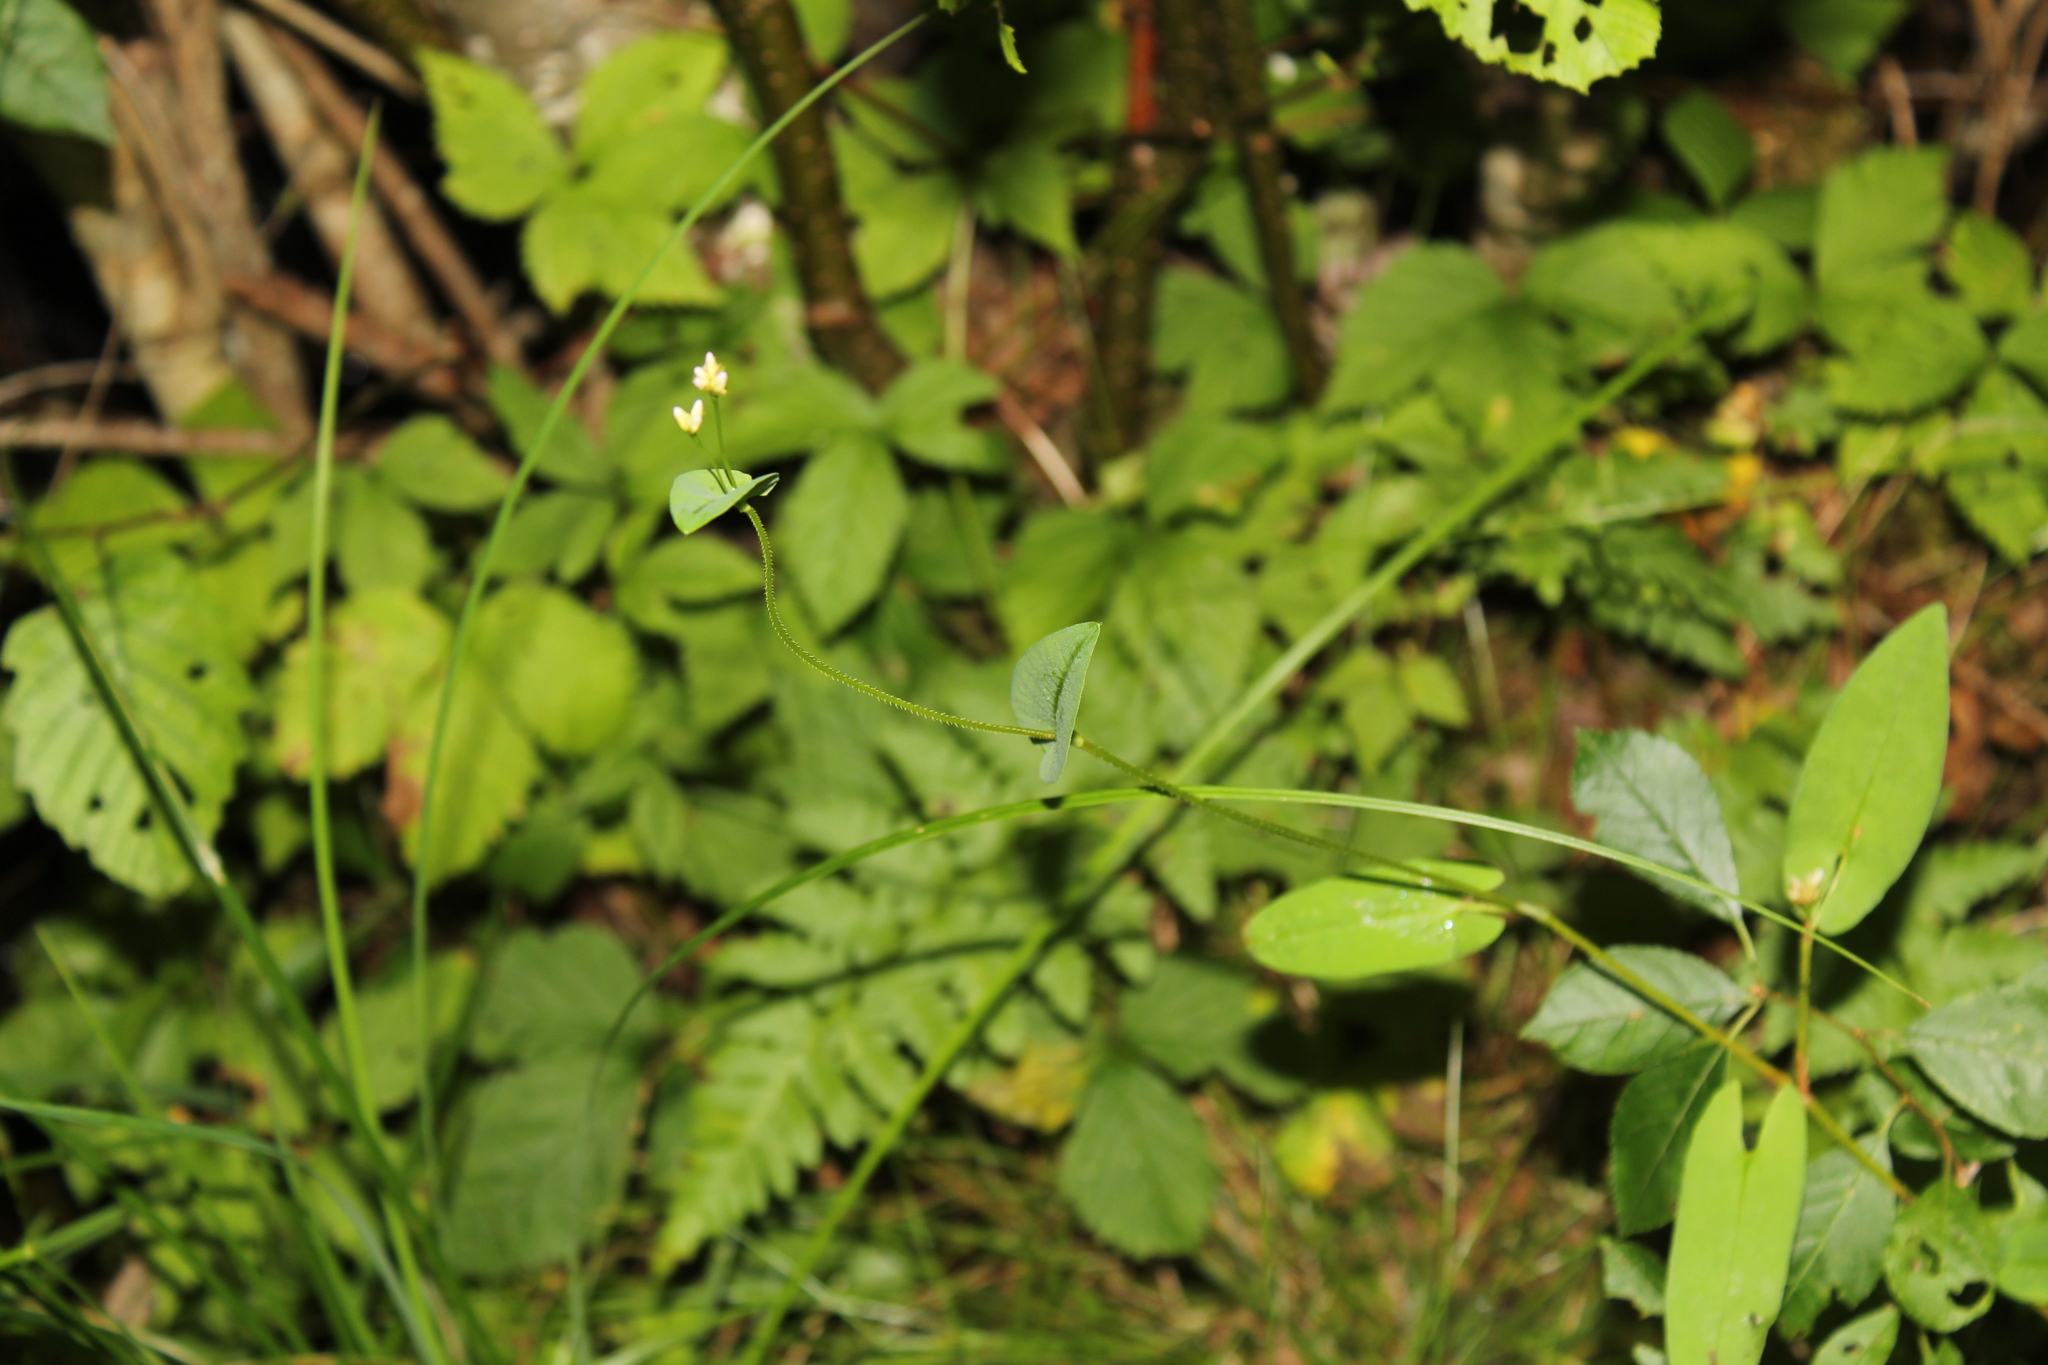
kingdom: Plantae
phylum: Tracheophyta
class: Magnoliopsida
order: Caryophyllales
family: Polygonaceae
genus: Persicaria
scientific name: Persicaria sagittata
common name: American tearthumb
